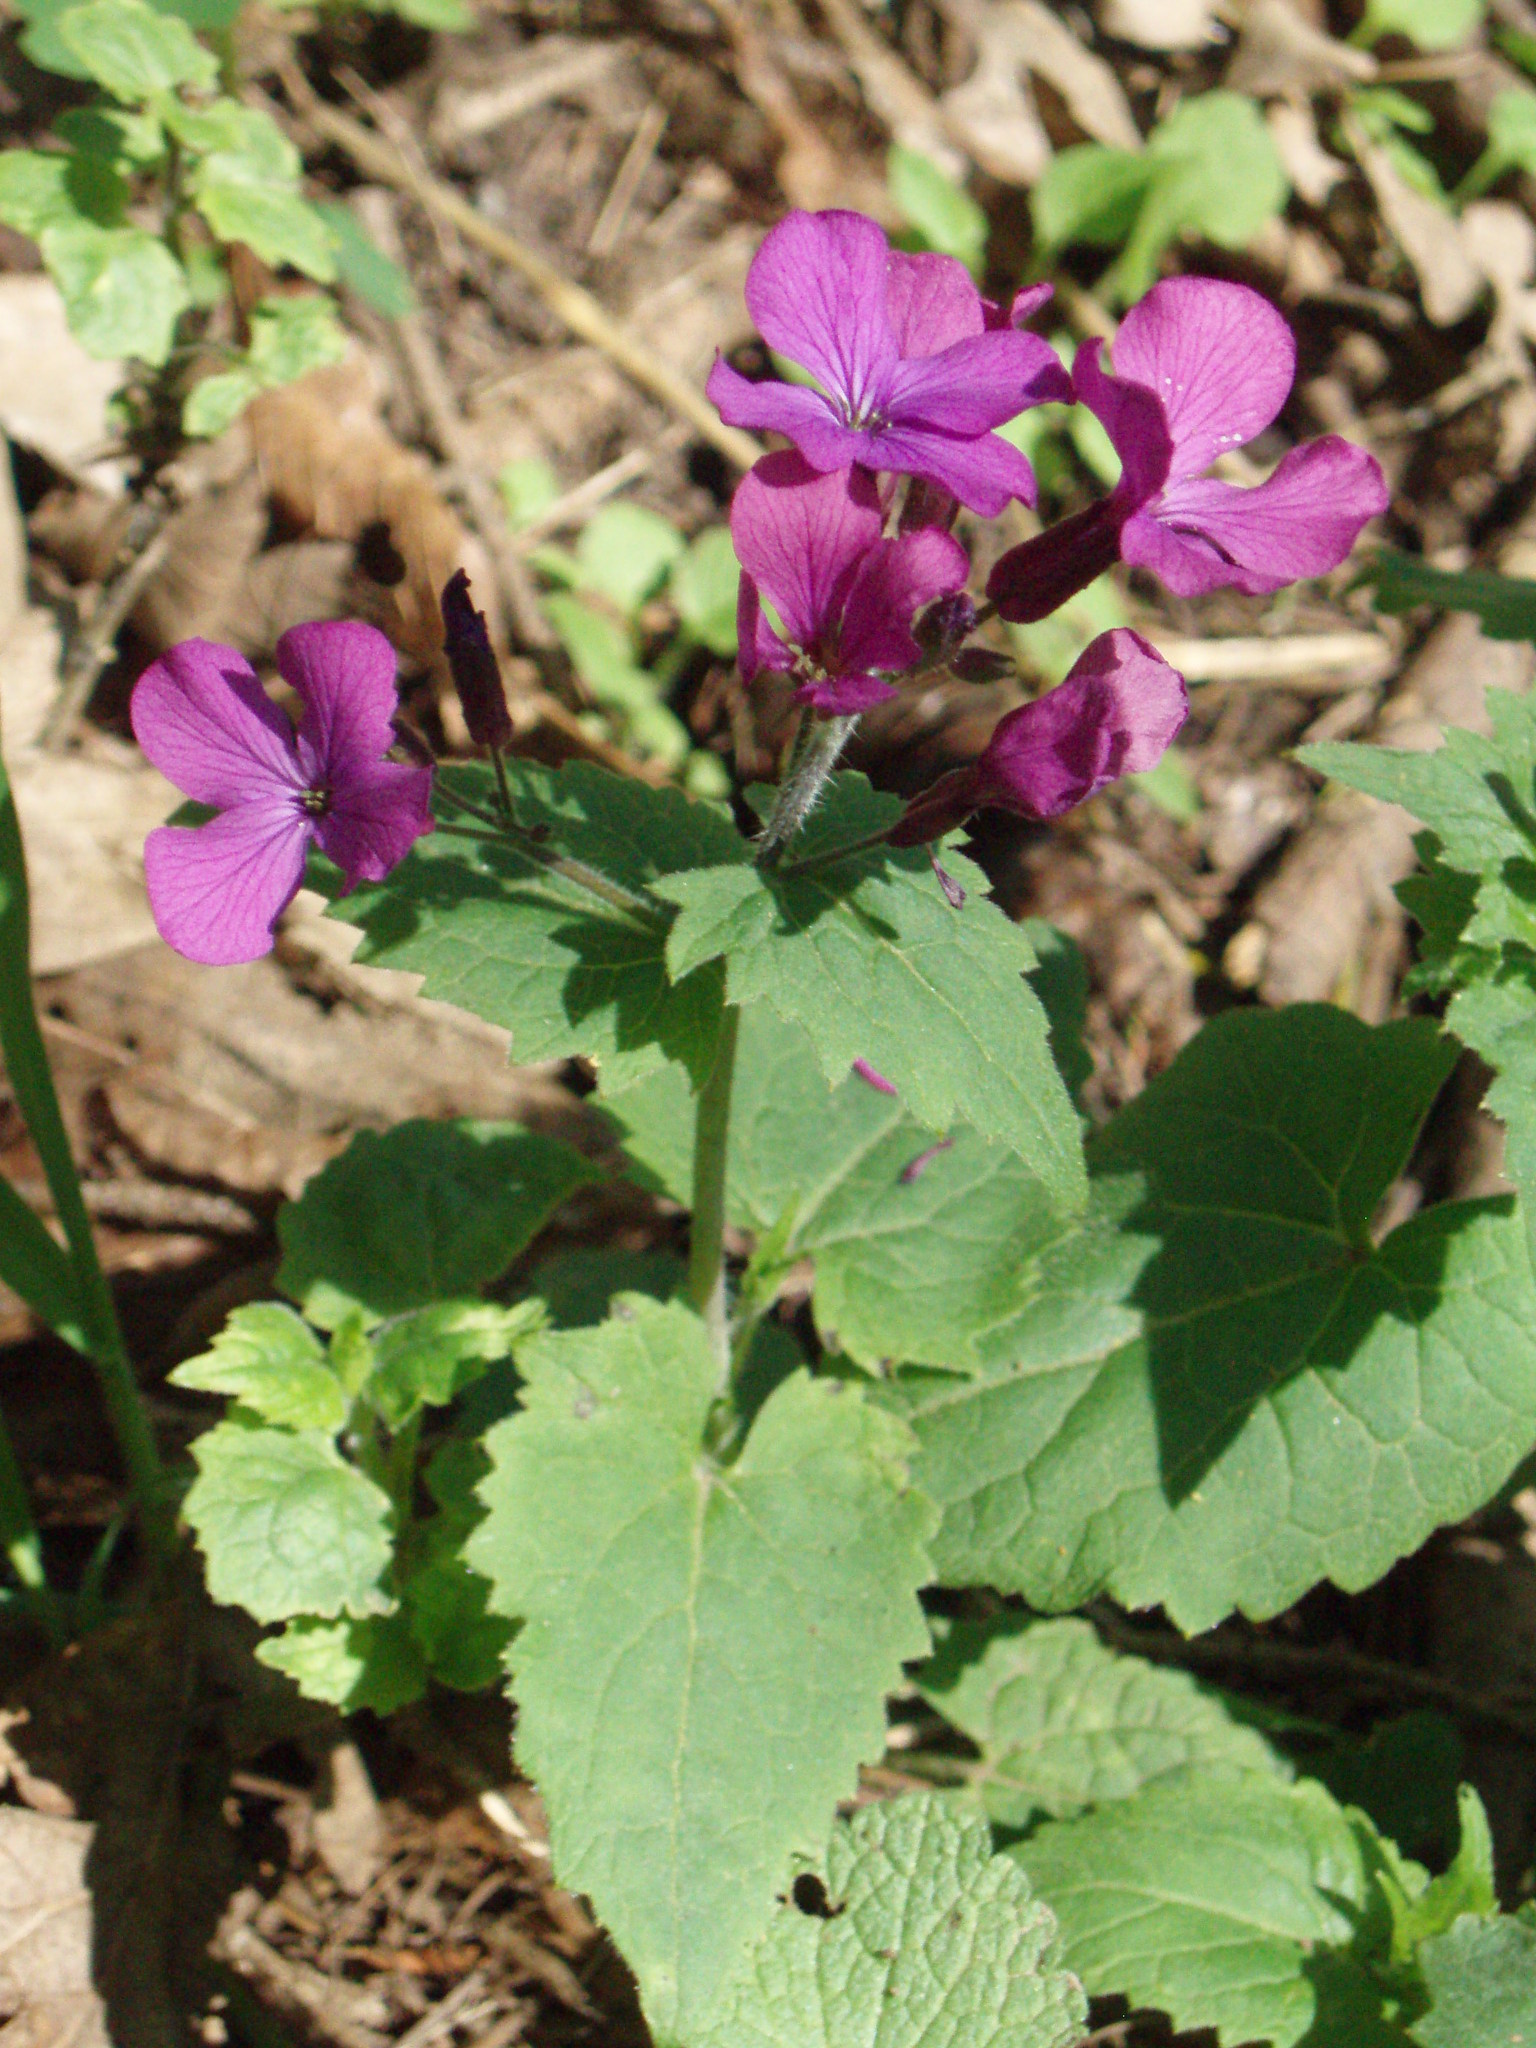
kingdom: Plantae
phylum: Tracheophyta
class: Magnoliopsida
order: Brassicales
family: Brassicaceae
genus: Lunaria
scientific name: Lunaria annua
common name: Honesty
